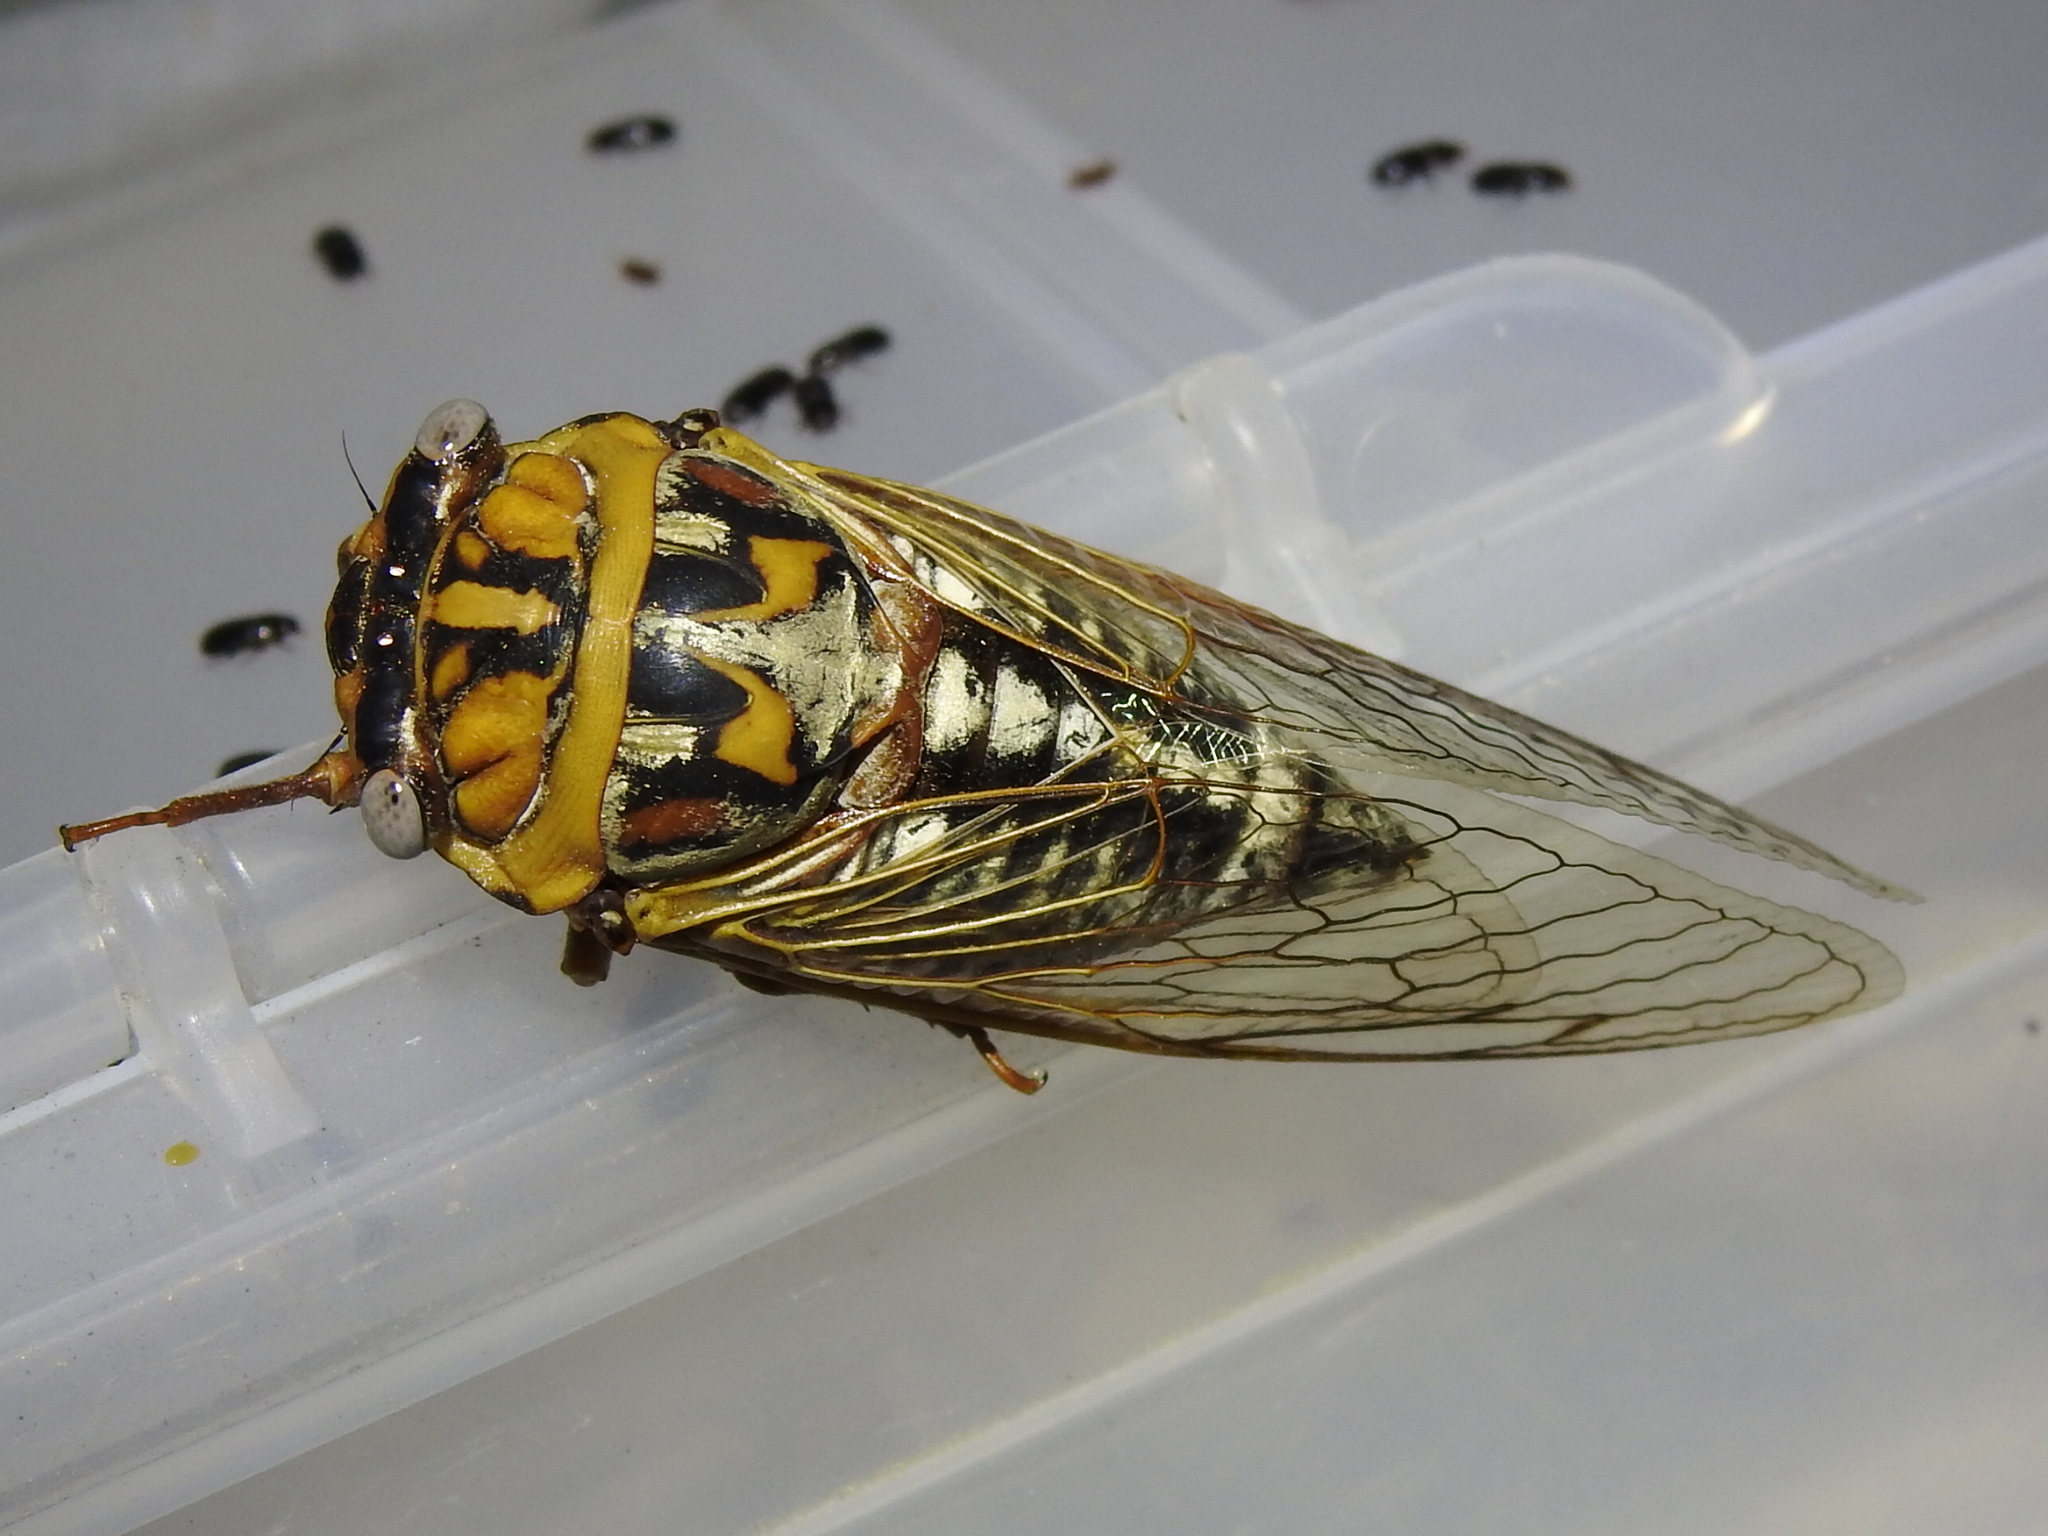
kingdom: Animalia
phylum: Arthropoda
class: Insecta
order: Hemiptera
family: Cicadidae
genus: Megatibicen
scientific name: Megatibicen dealbatus
